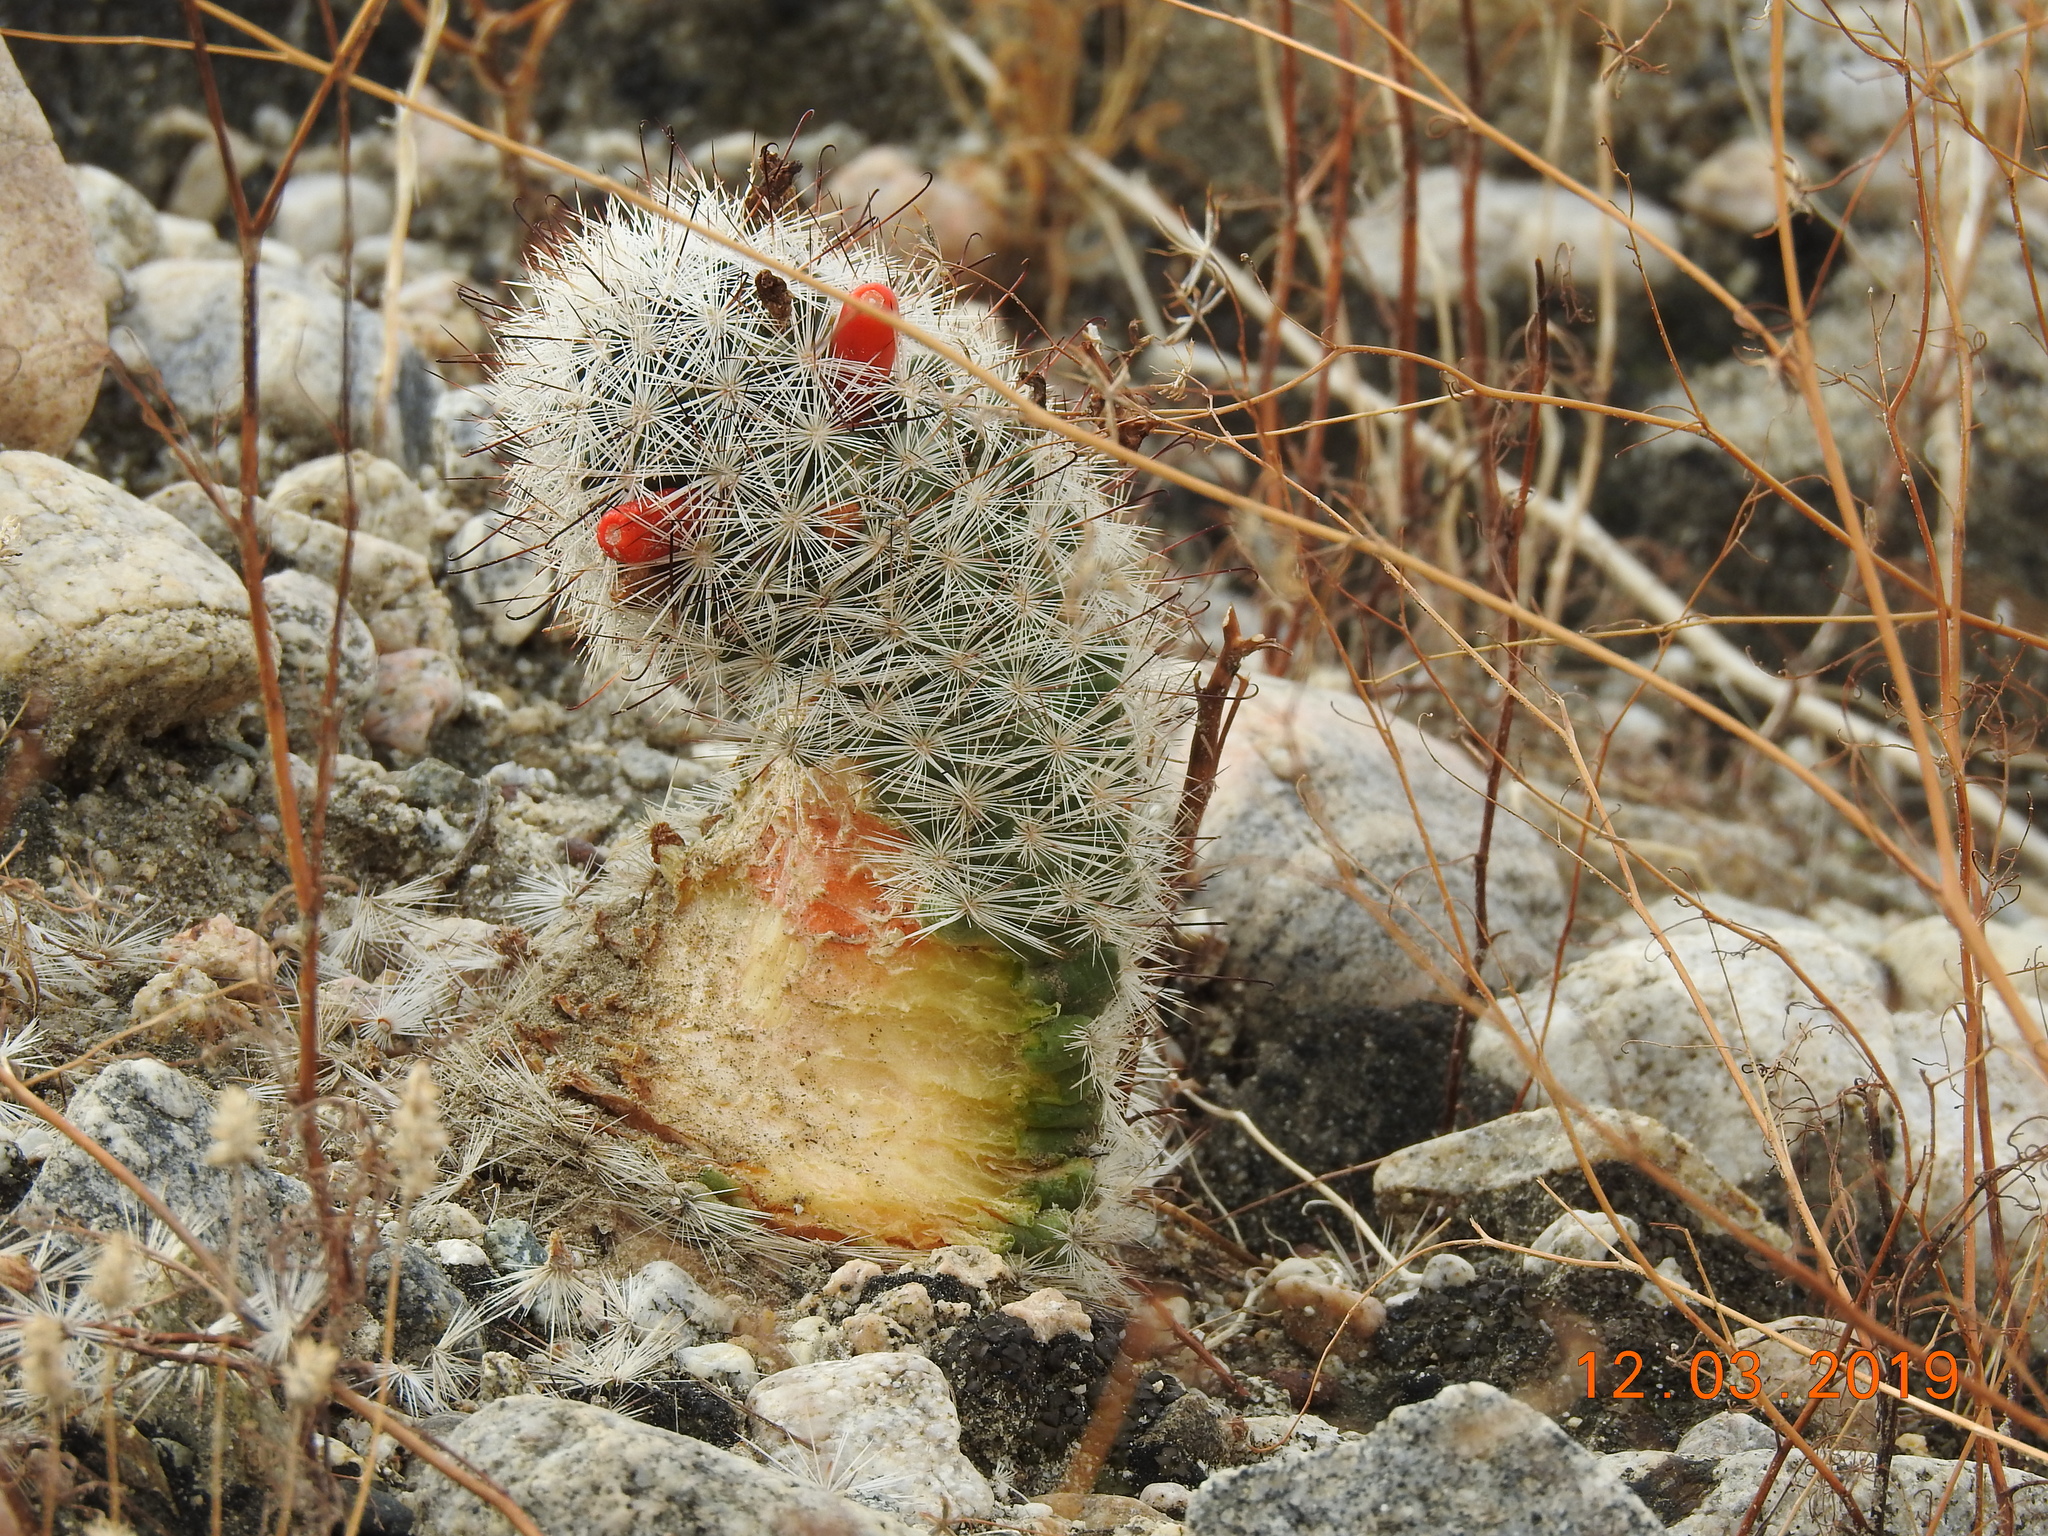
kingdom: Plantae
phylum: Tracheophyta
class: Magnoliopsida
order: Caryophyllales
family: Cactaceae
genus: Cochemiea
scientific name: Cochemiea tetrancistra
